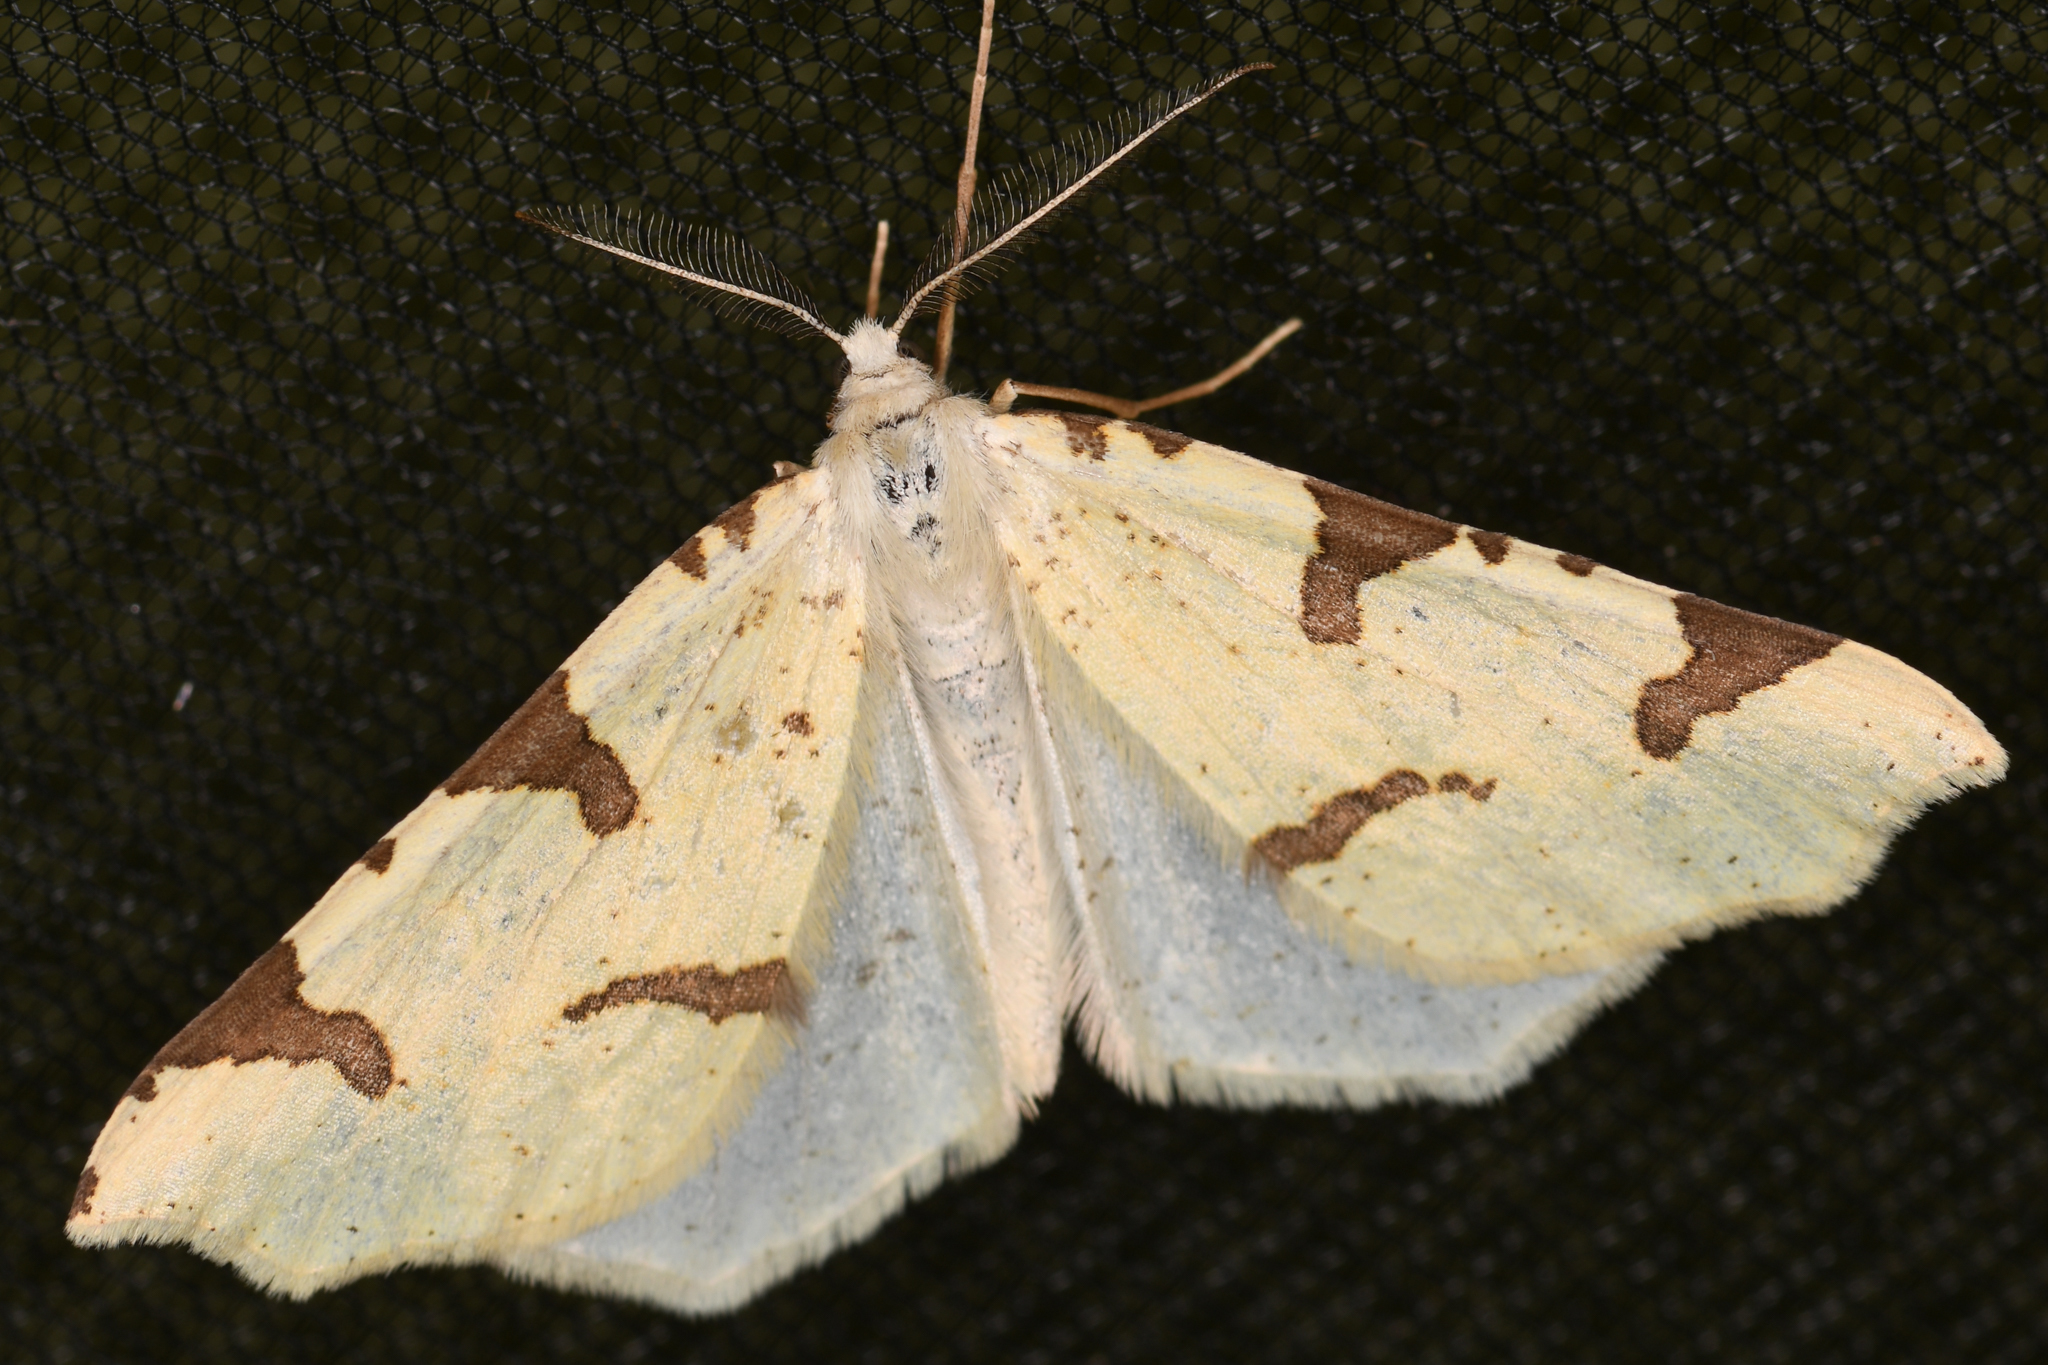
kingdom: Animalia
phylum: Arthropoda
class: Insecta
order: Lepidoptera
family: Geometridae
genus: Neoterpes
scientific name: Neoterpes trianguliferata
